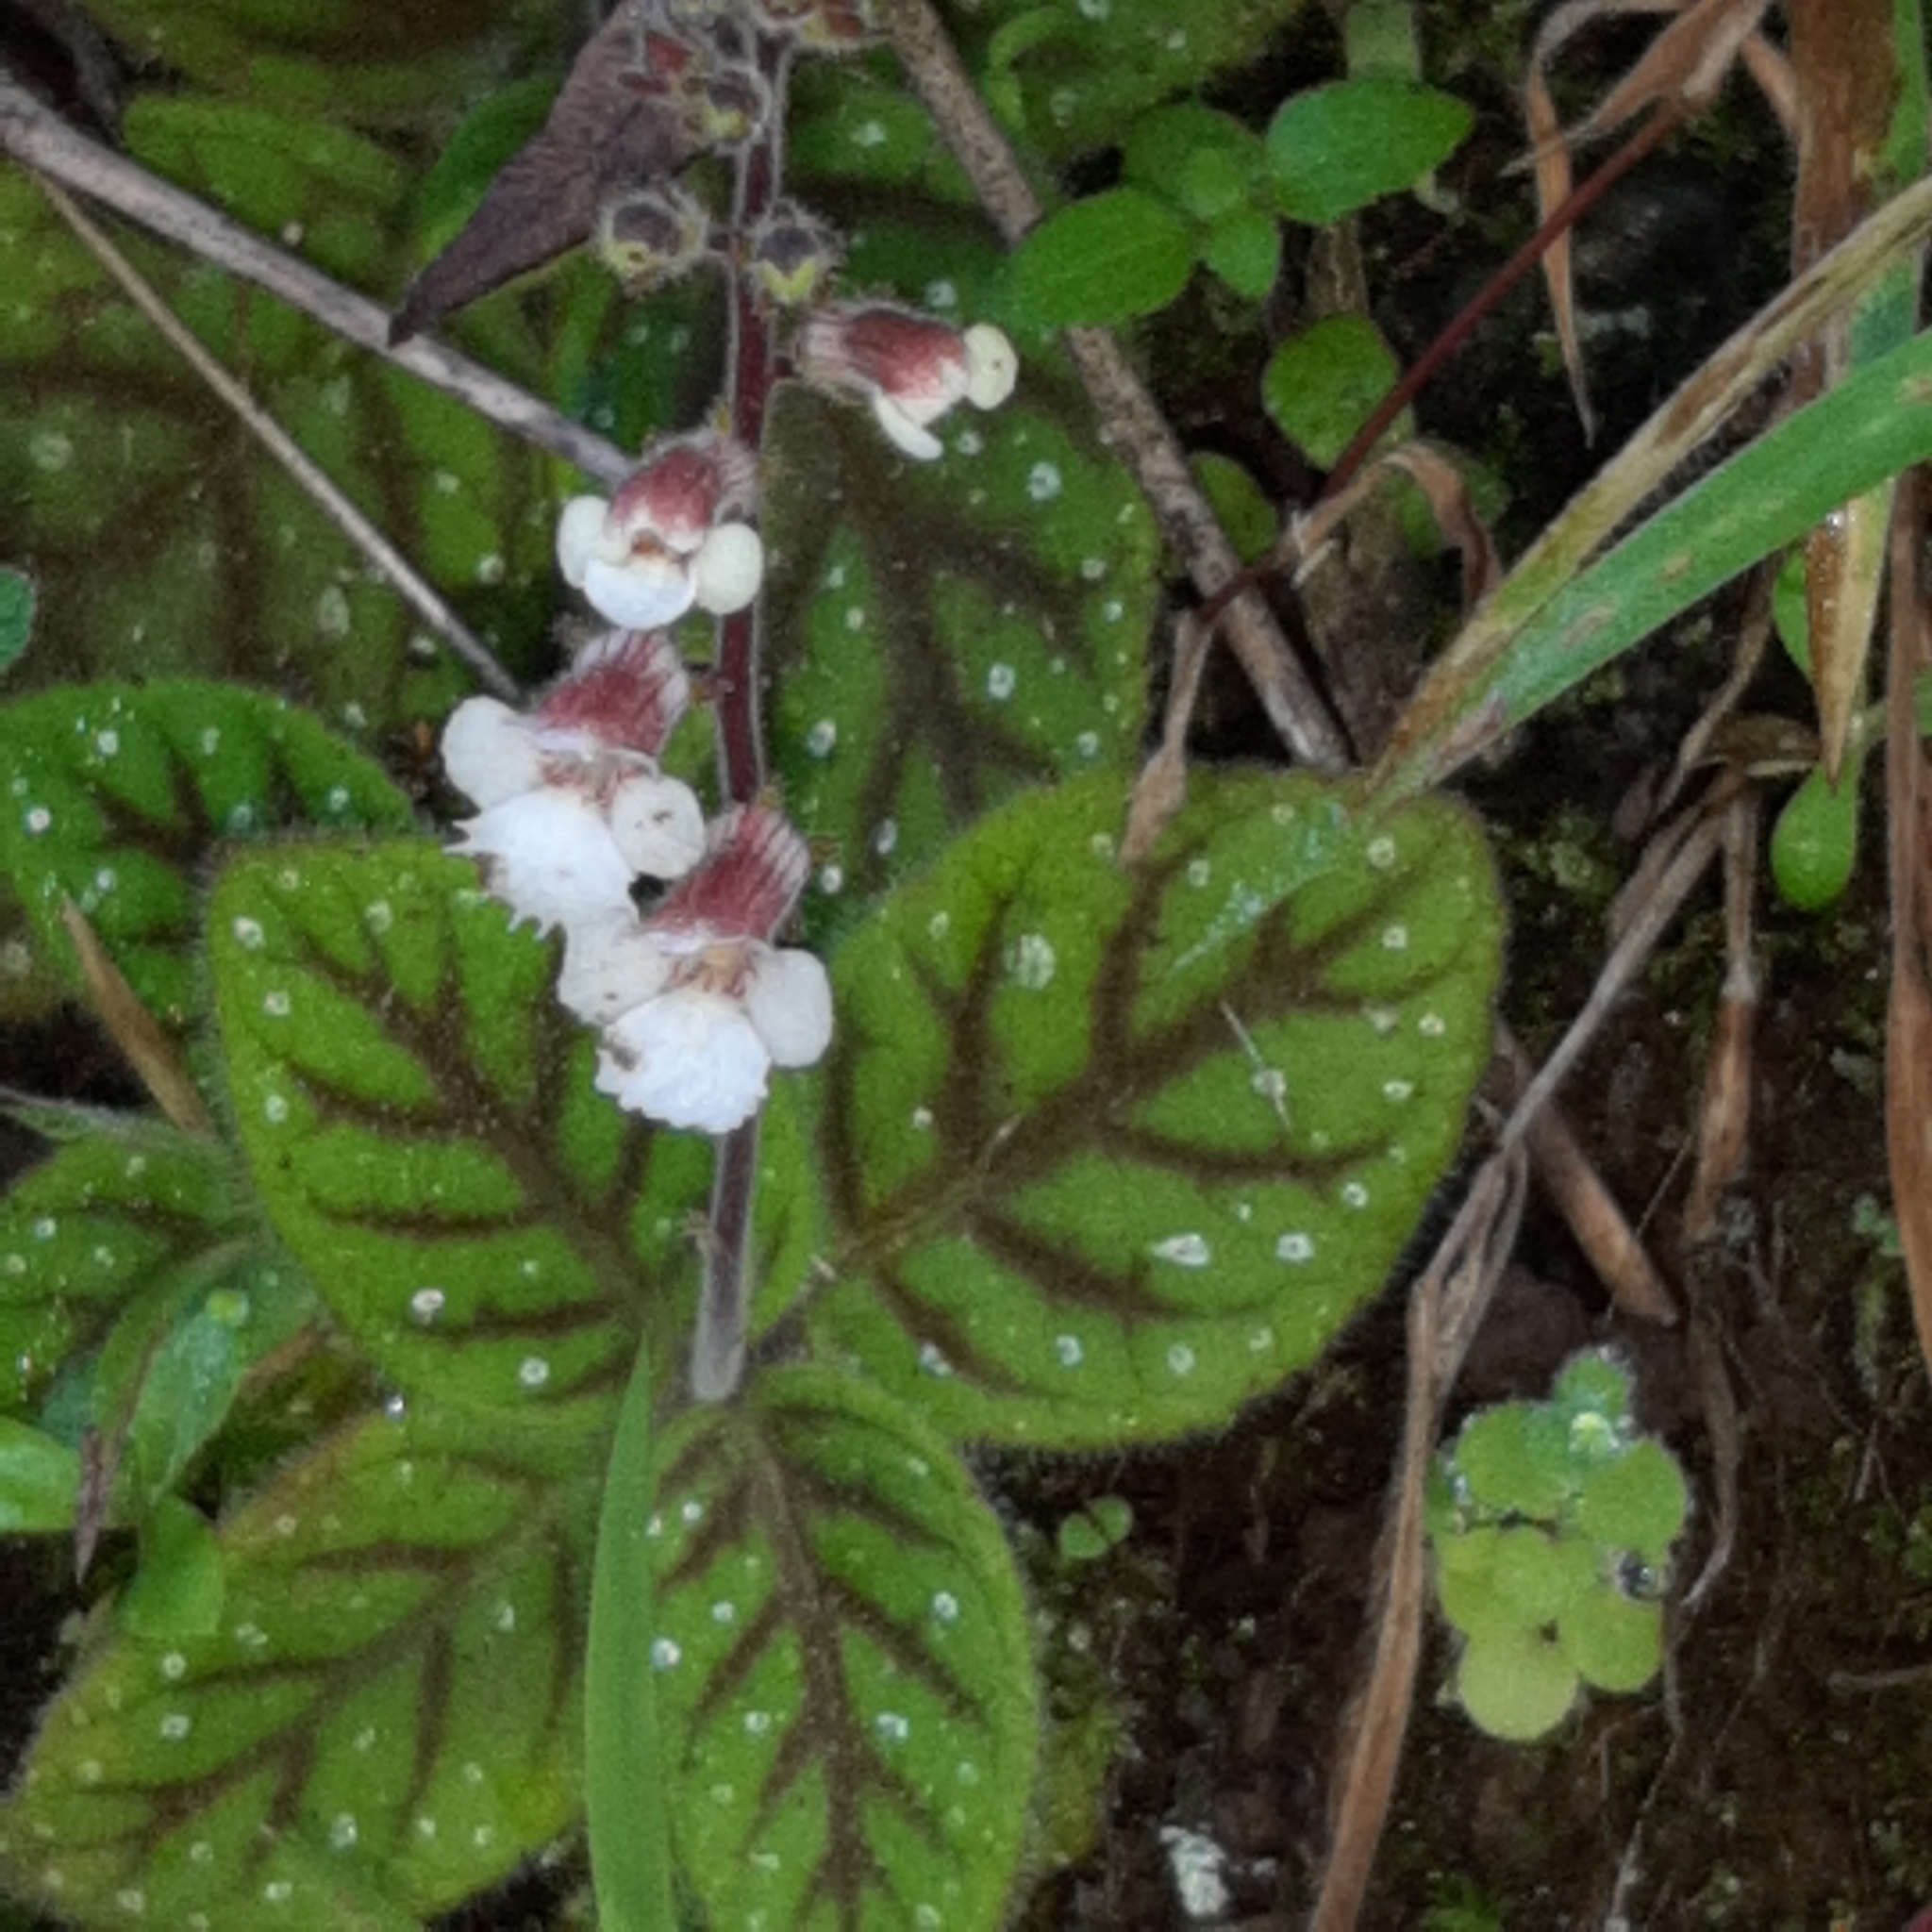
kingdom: Plantae
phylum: Tracheophyta
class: Magnoliopsida
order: Lamiales
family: Gesneriaceae
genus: Gloxinia
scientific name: Gloxinia erinoides
